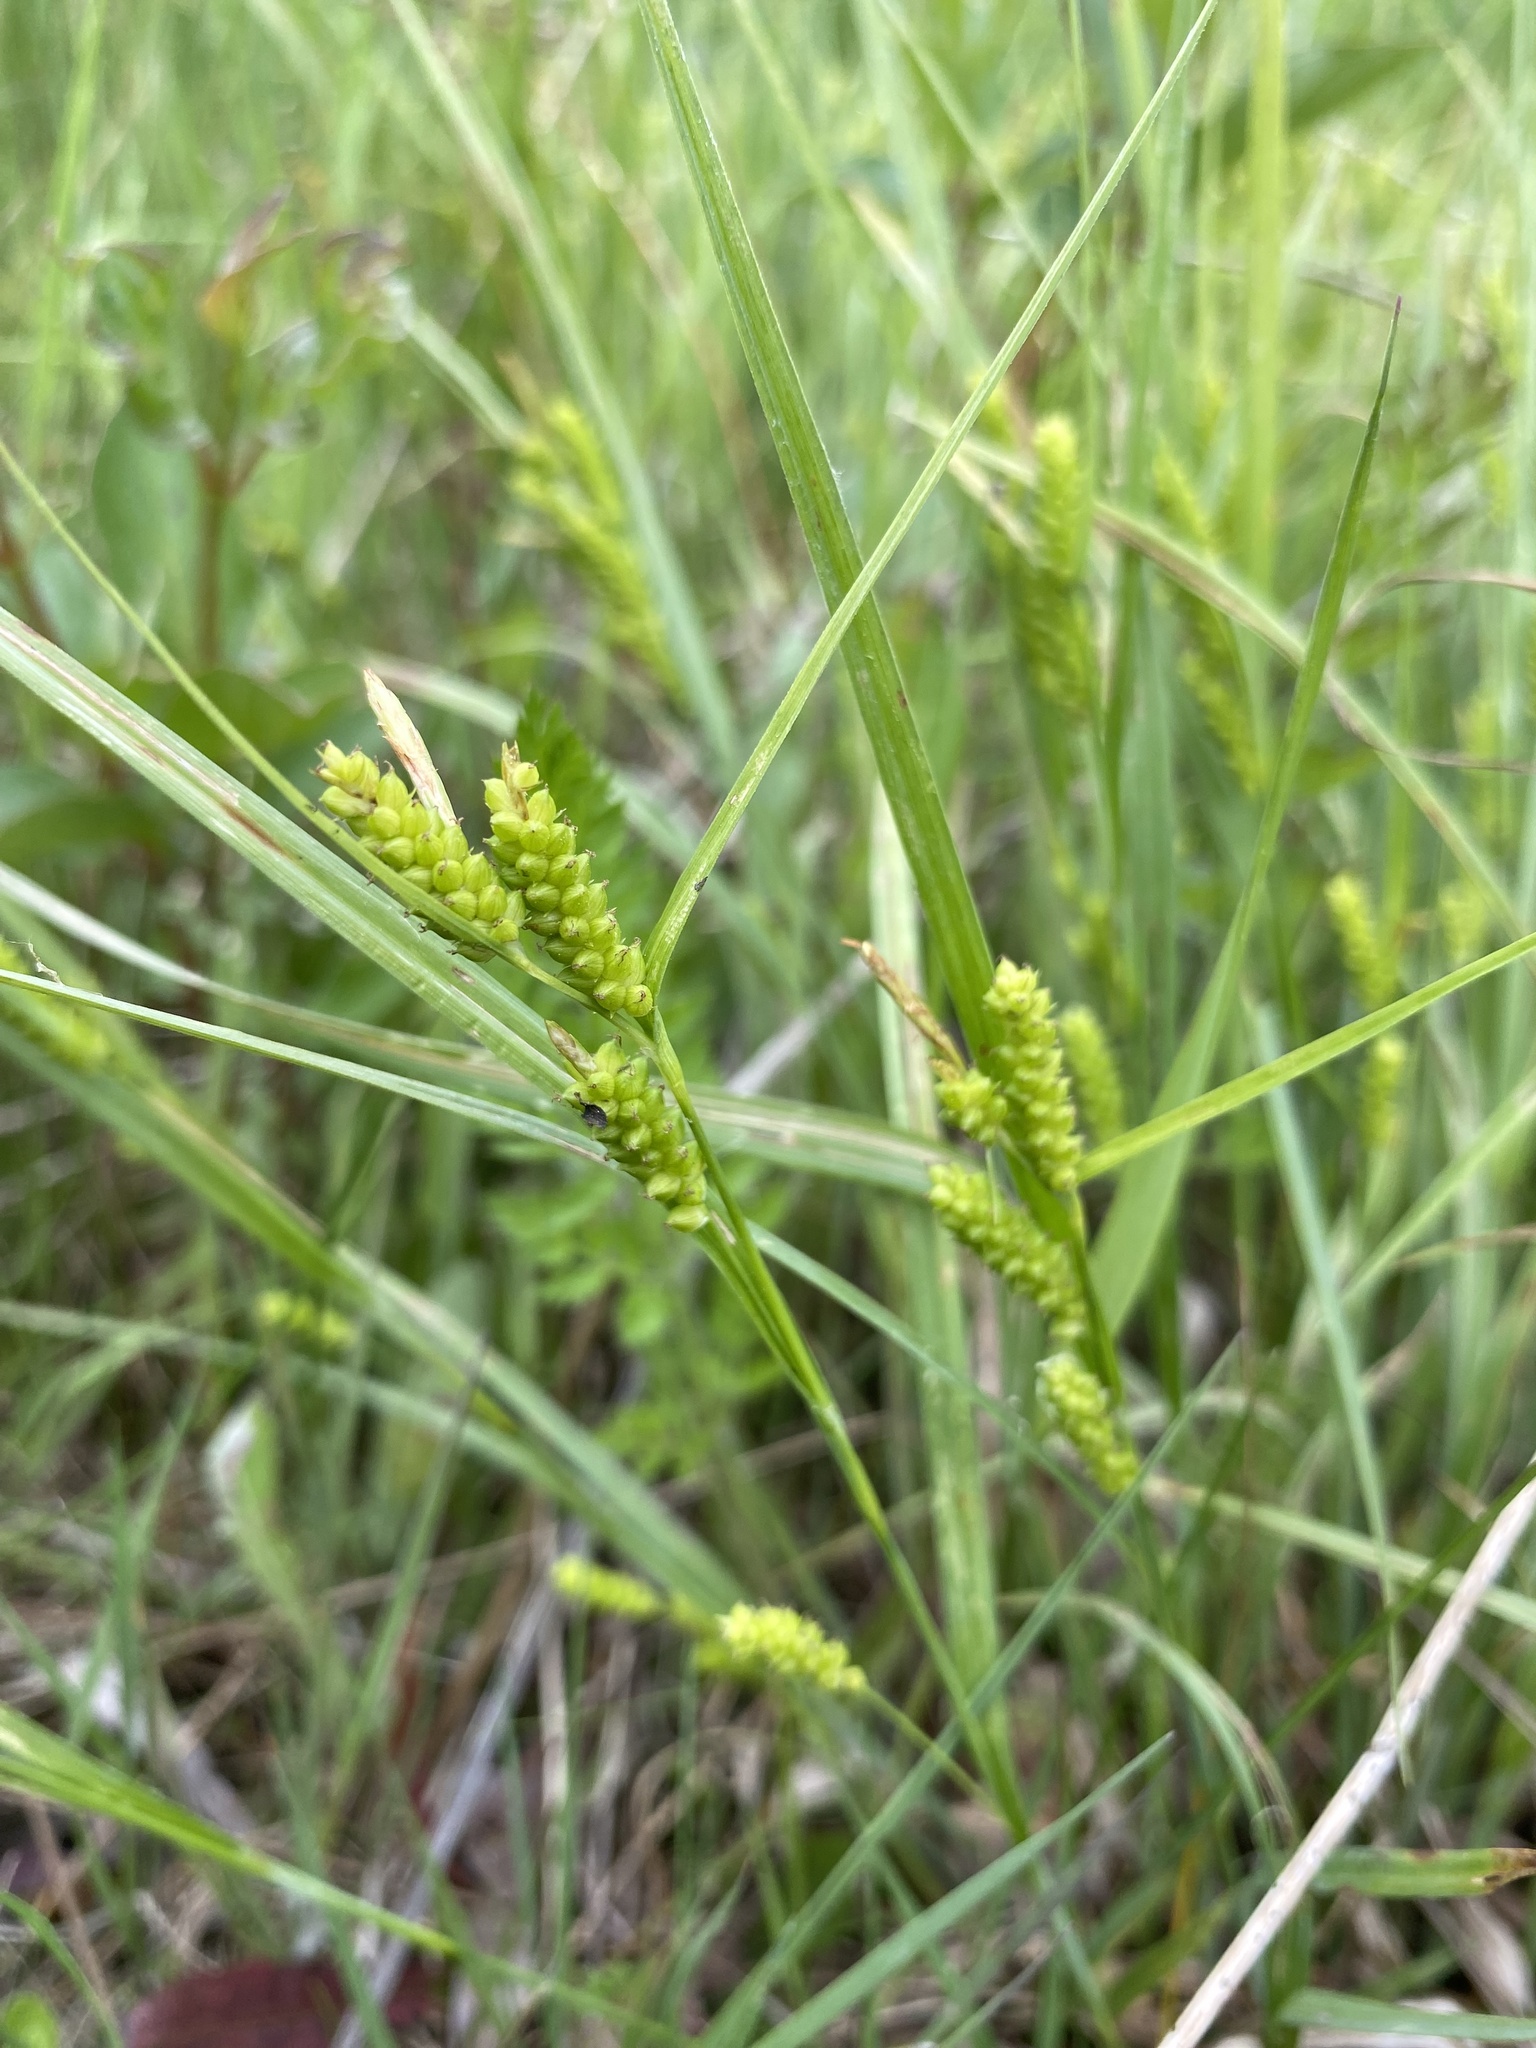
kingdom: Plantae
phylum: Tracheophyta
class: Liliopsida
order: Poales
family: Cyperaceae
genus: Carex
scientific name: Carex granularis
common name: Granular sedge
